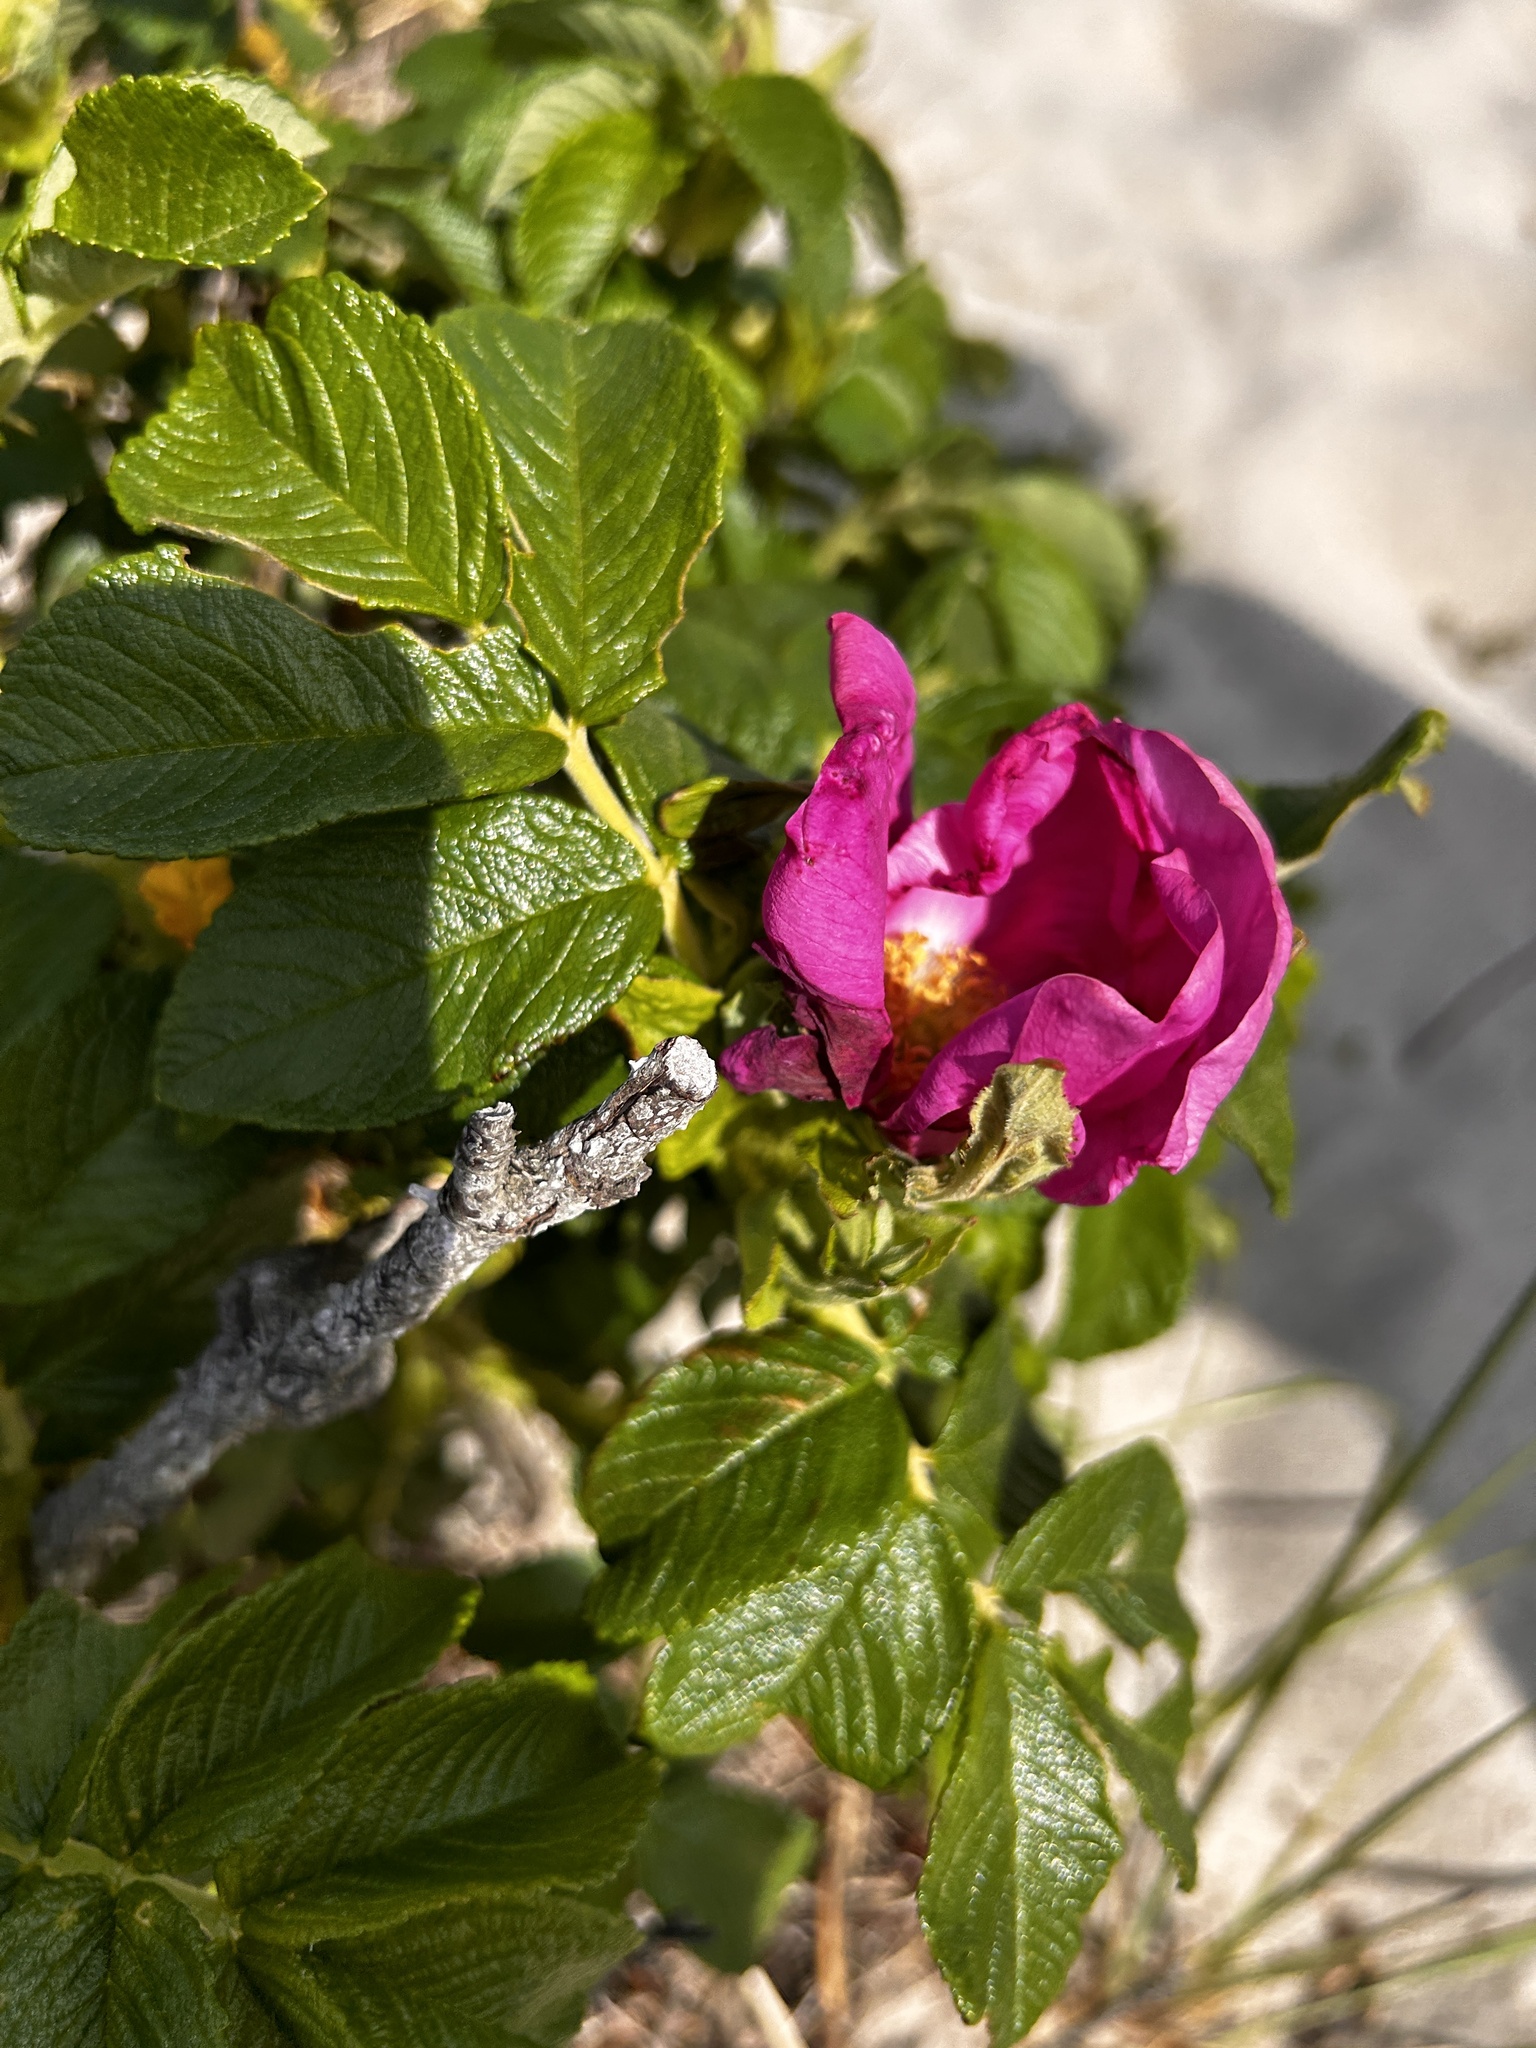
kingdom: Plantae
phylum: Tracheophyta
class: Magnoliopsida
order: Rosales
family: Rosaceae
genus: Rosa
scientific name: Rosa rugosa
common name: Japanese rose
